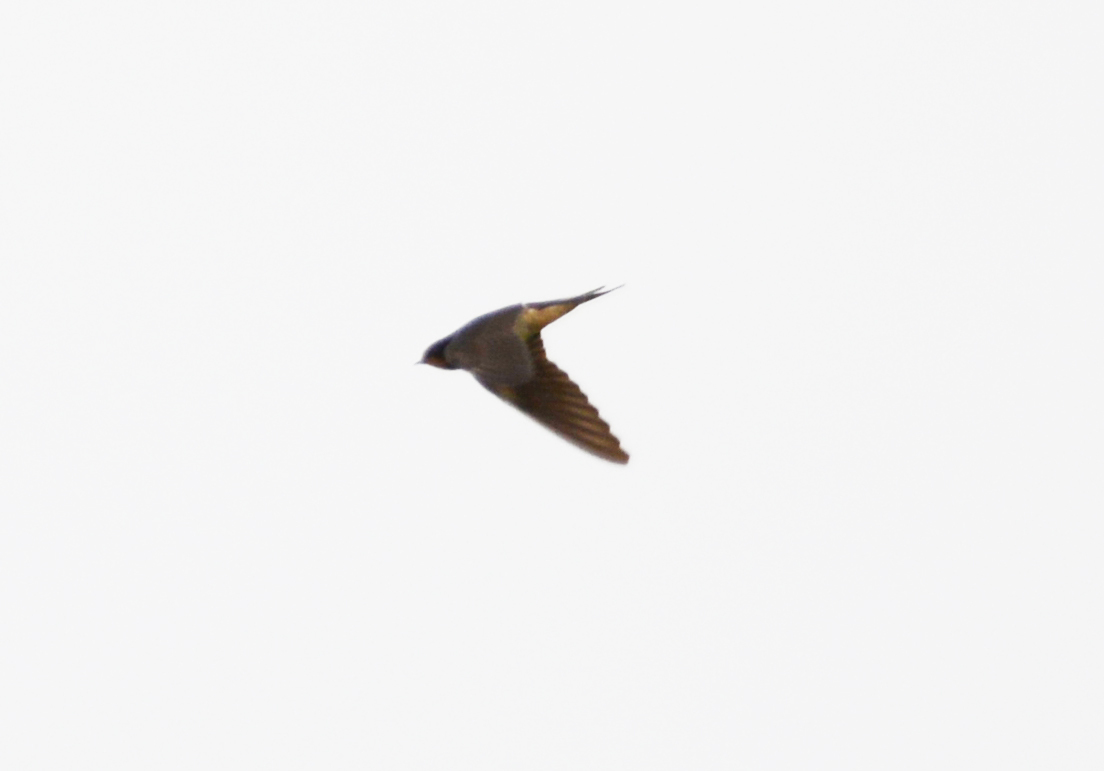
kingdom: Animalia
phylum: Chordata
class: Aves
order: Passeriformes
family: Hirundinidae
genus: Hirundo
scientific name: Hirundo rustica
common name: Barn swallow
